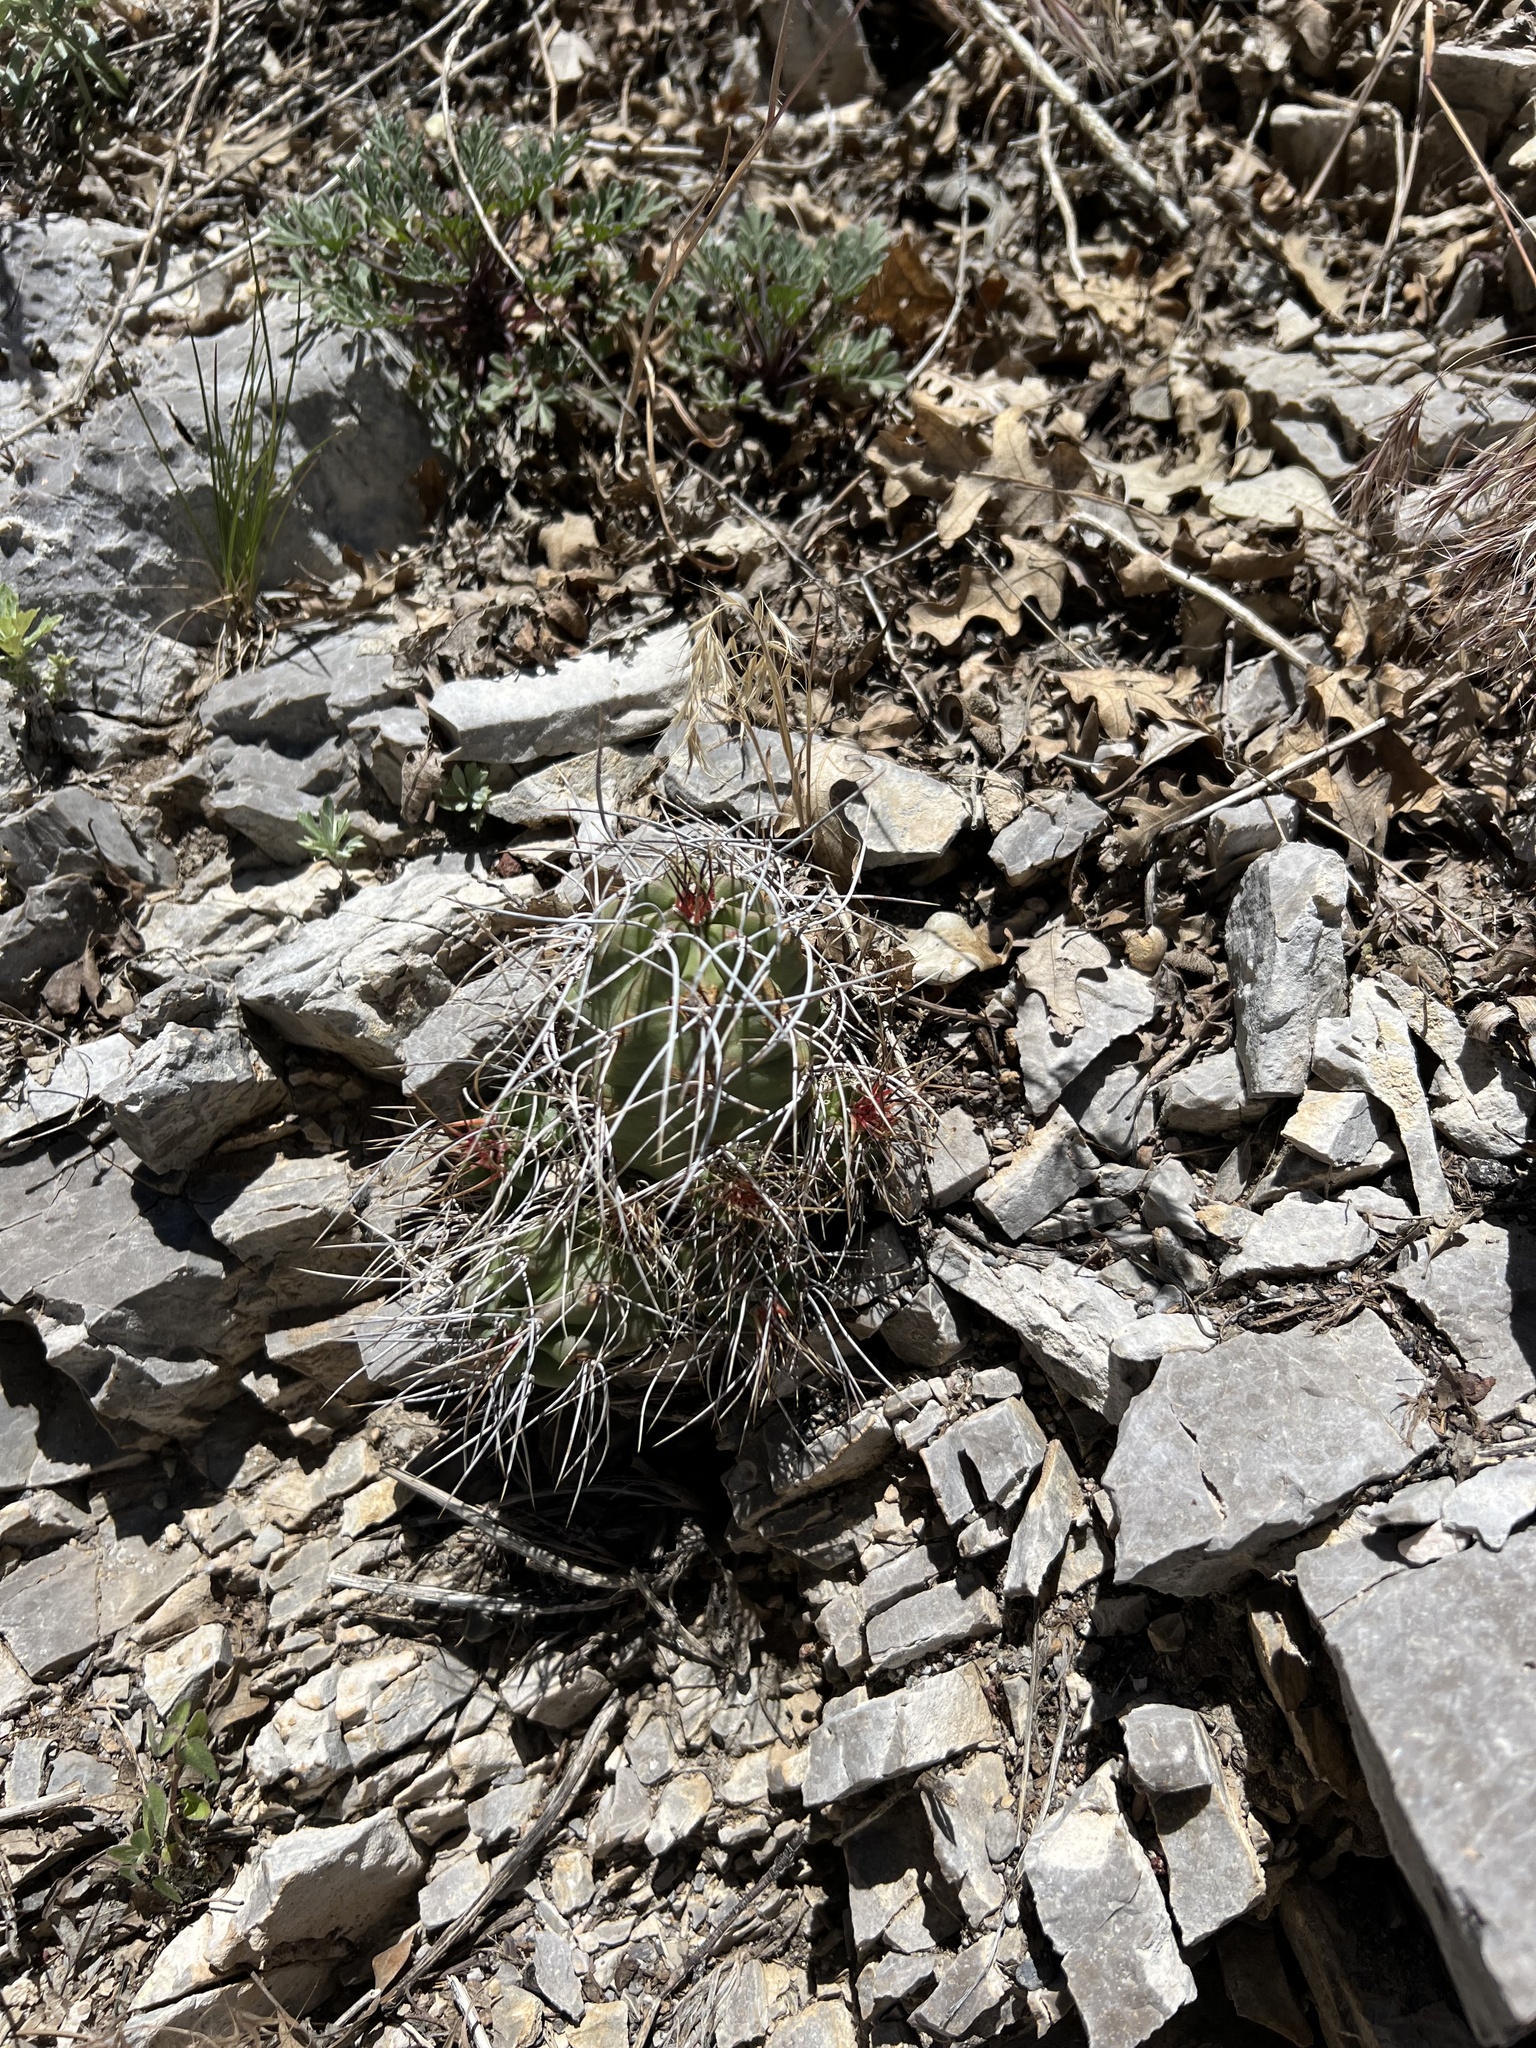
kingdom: Plantae
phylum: Tracheophyta
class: Magnoliopsida
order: Caryophyllales
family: Cactaceae
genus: Echinocereus
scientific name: Echinocereus triglochidiatus
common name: Claretcup hedgehog
